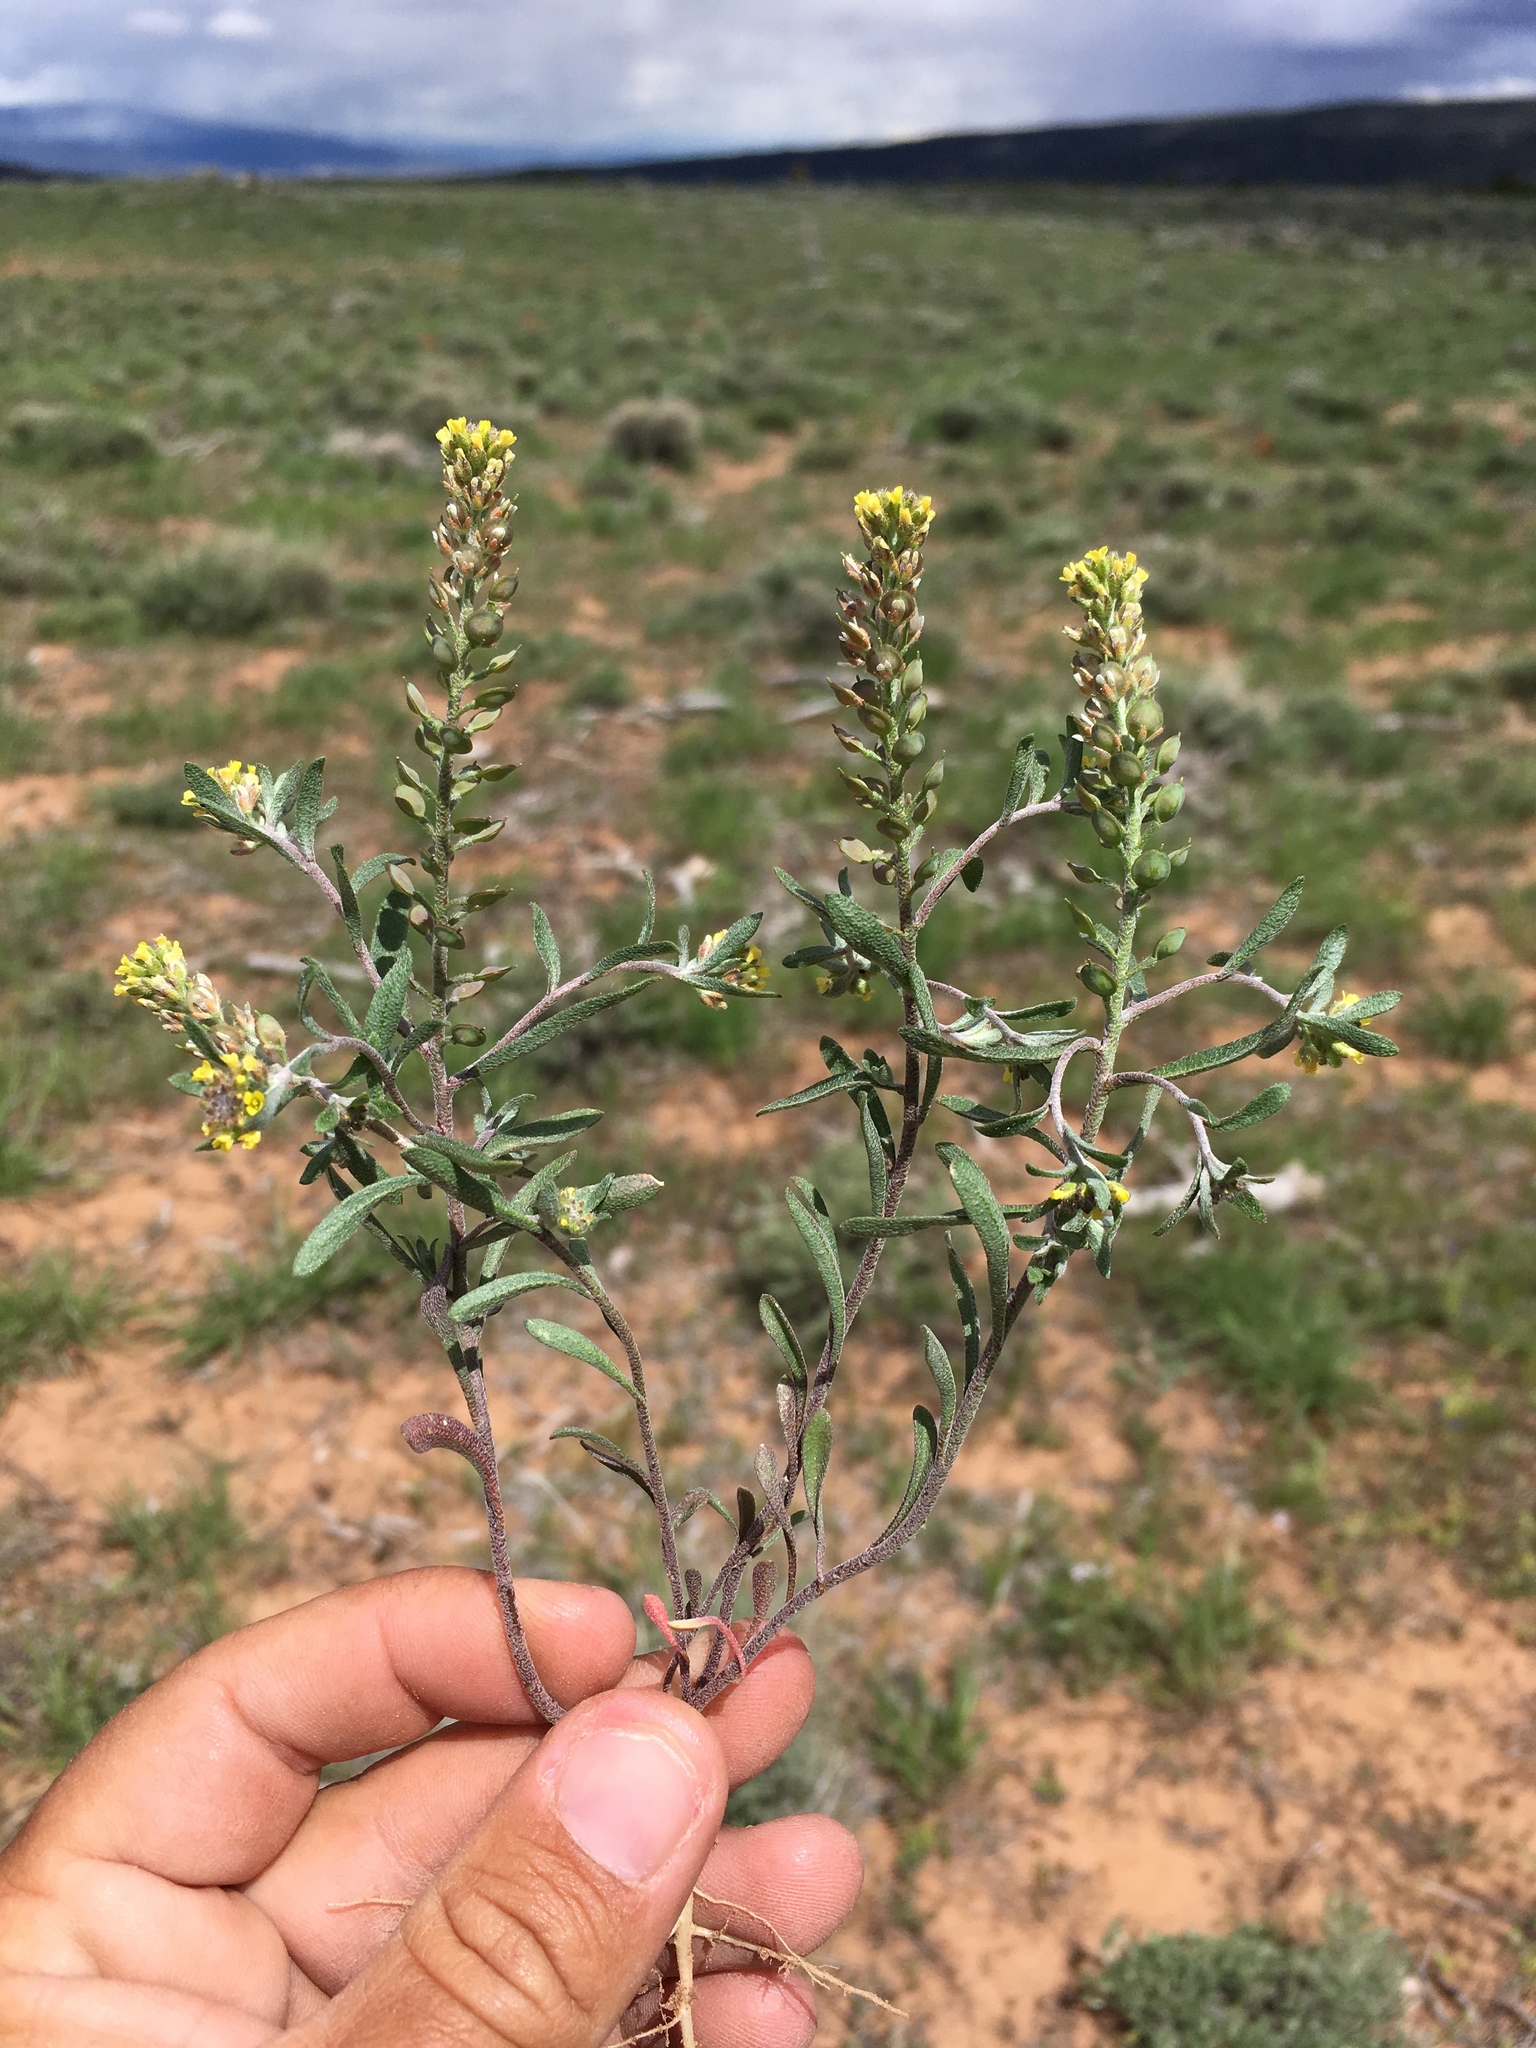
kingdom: Plantae
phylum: Tracheophyta
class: Magnoliopsida
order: Brassicales
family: Brassicaceae
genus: Alyssum
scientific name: Alyssum turkestanicum
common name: Desert alyssum
